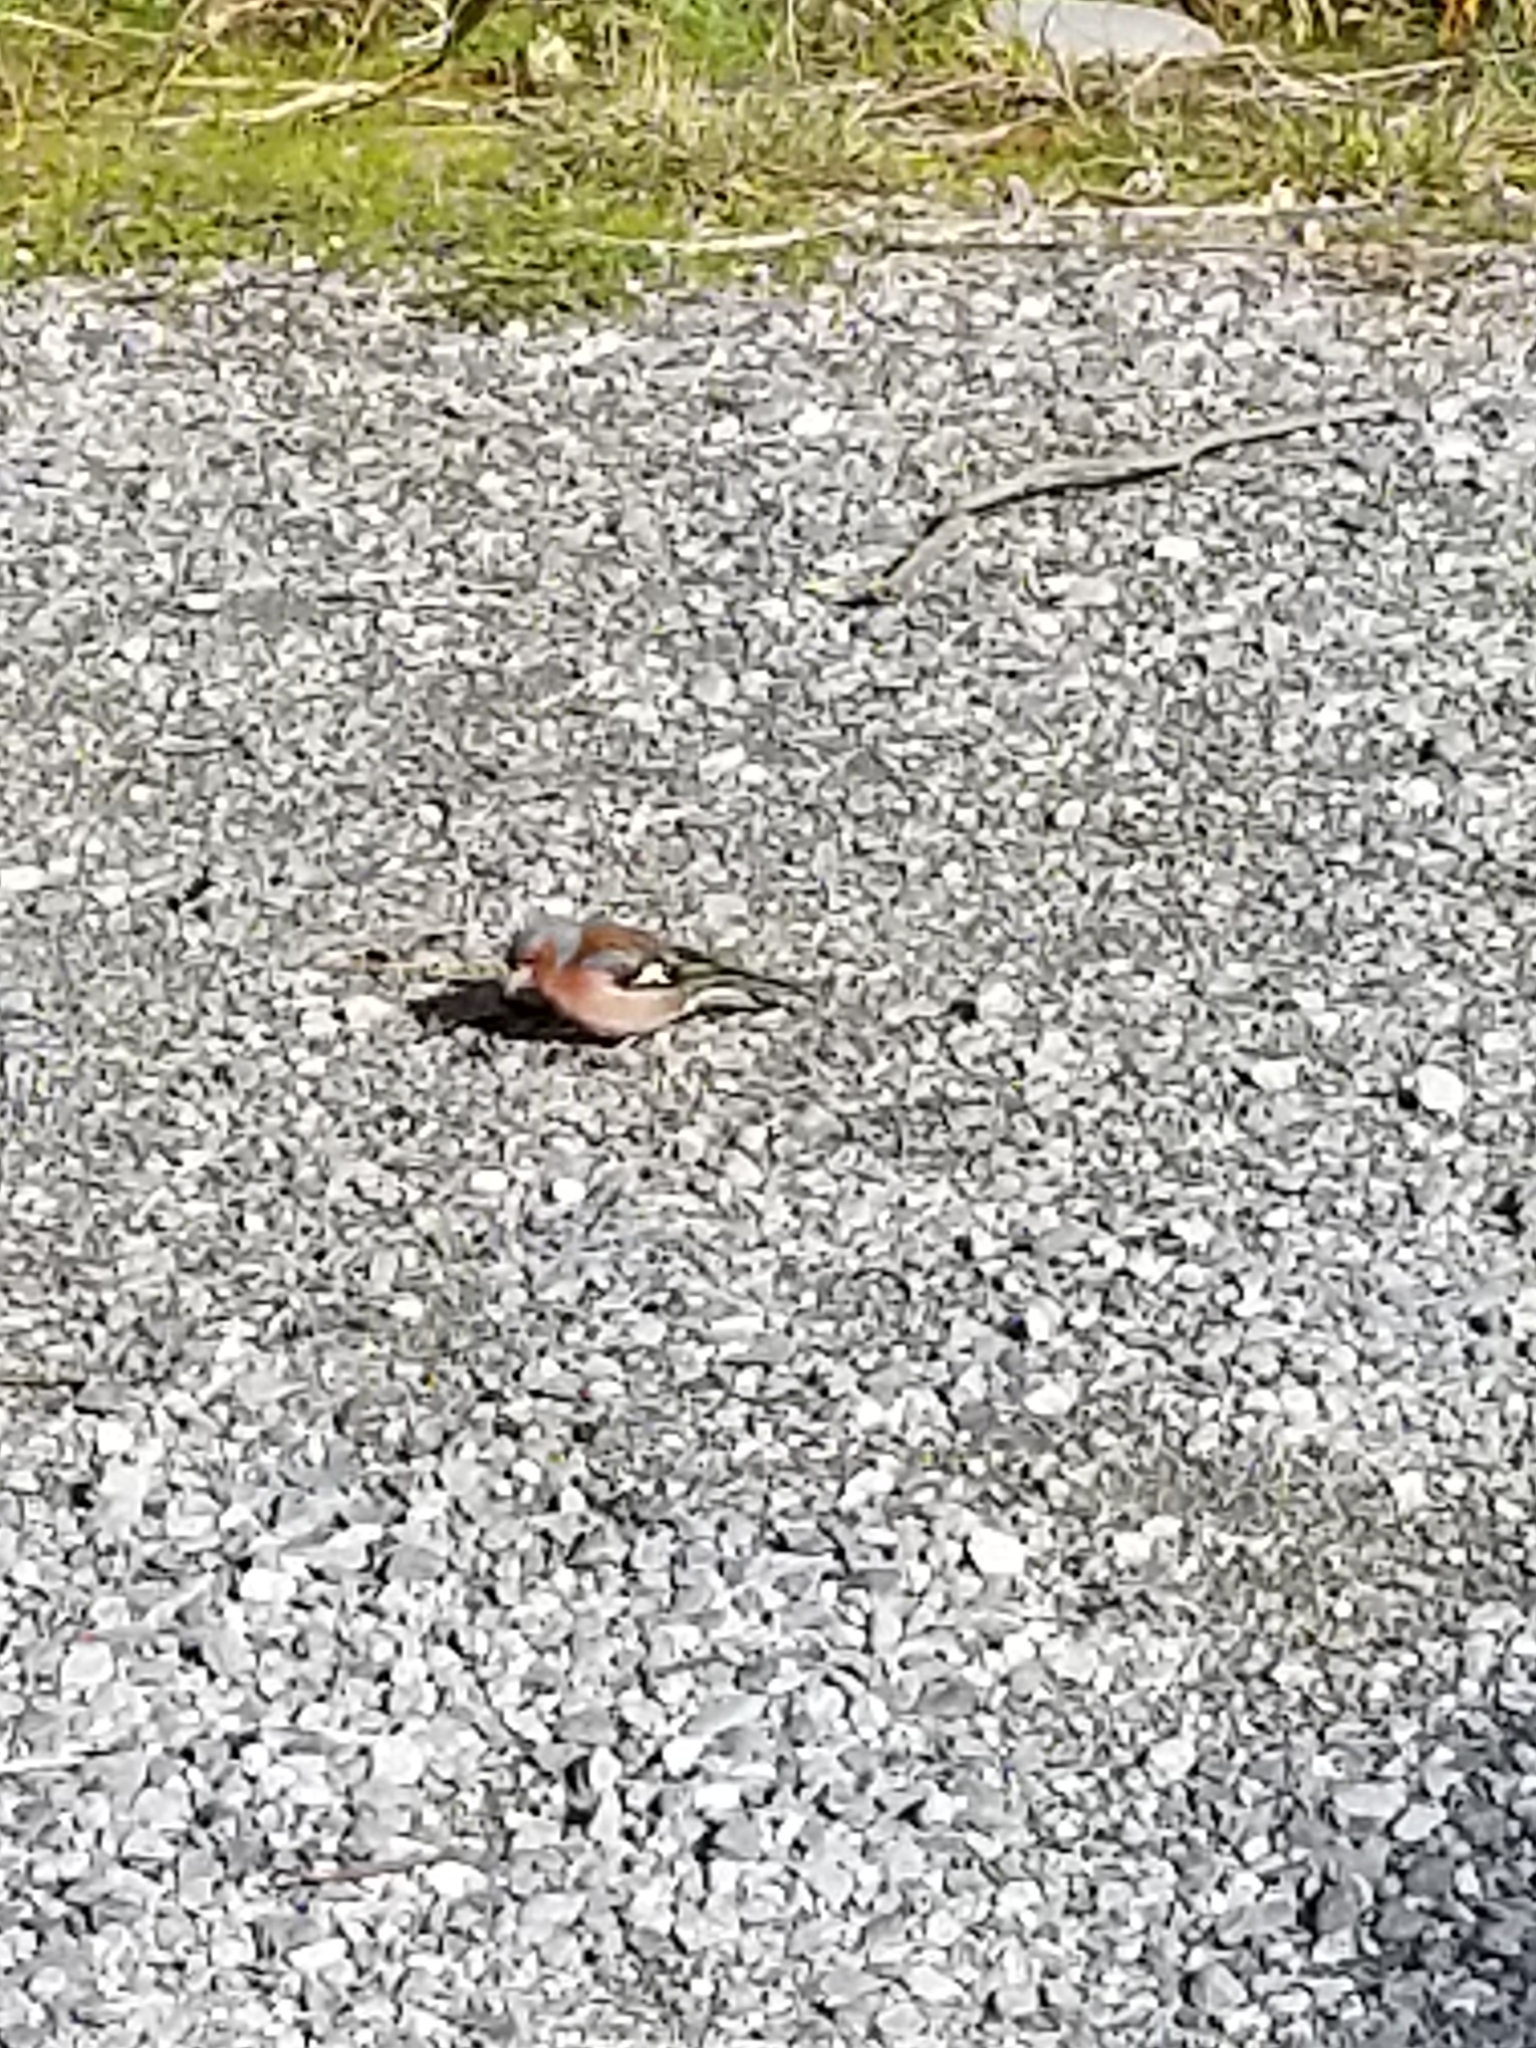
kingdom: Animalia
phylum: Chordata
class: Aves
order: Passeriformes
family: Fringillidae
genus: Fringilla
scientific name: Fringilla coelebs
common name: Common chaffinch
